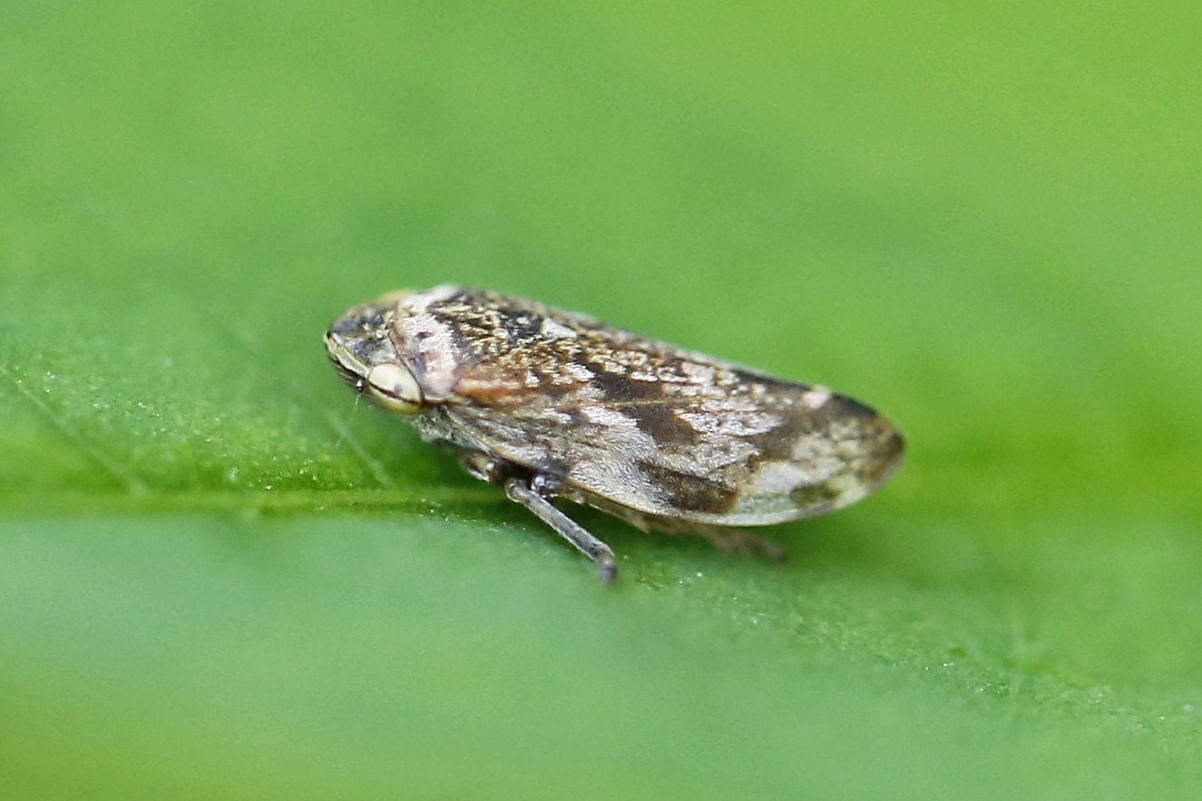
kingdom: Animalia
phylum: Arthropoda
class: Insecta
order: Hemiptera
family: Aphrophoridae
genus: Philaenus
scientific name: Philaenus spumarius
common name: Meadow spittlebug
